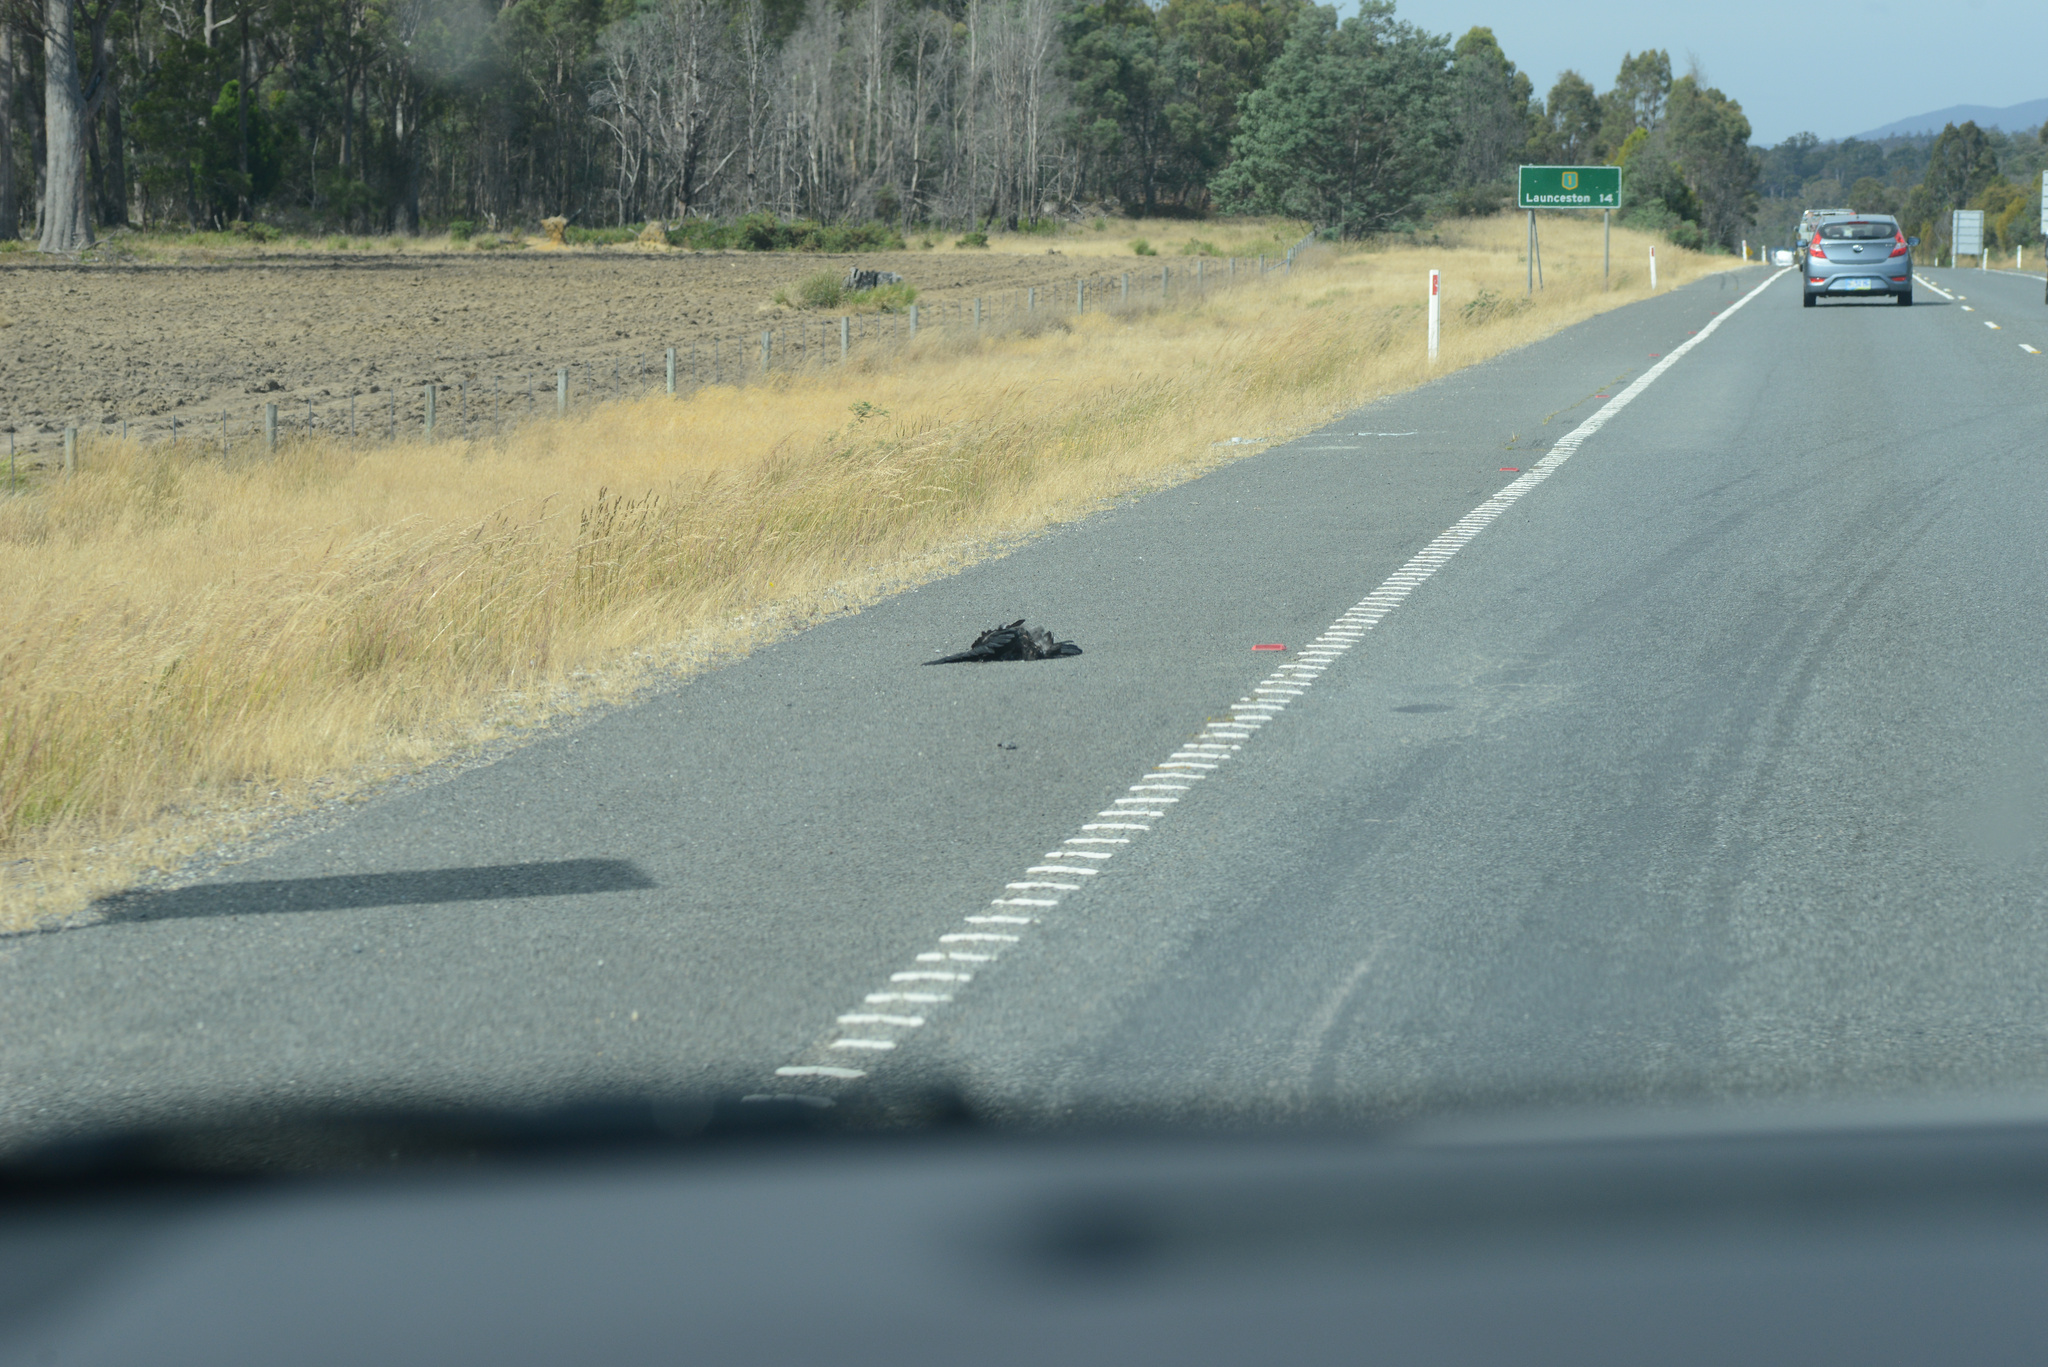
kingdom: Animalia
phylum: Chordata
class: Aves
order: Passeriformes
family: Corvidae
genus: Corvus
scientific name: Corvus tasmanicus
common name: Forest raven
